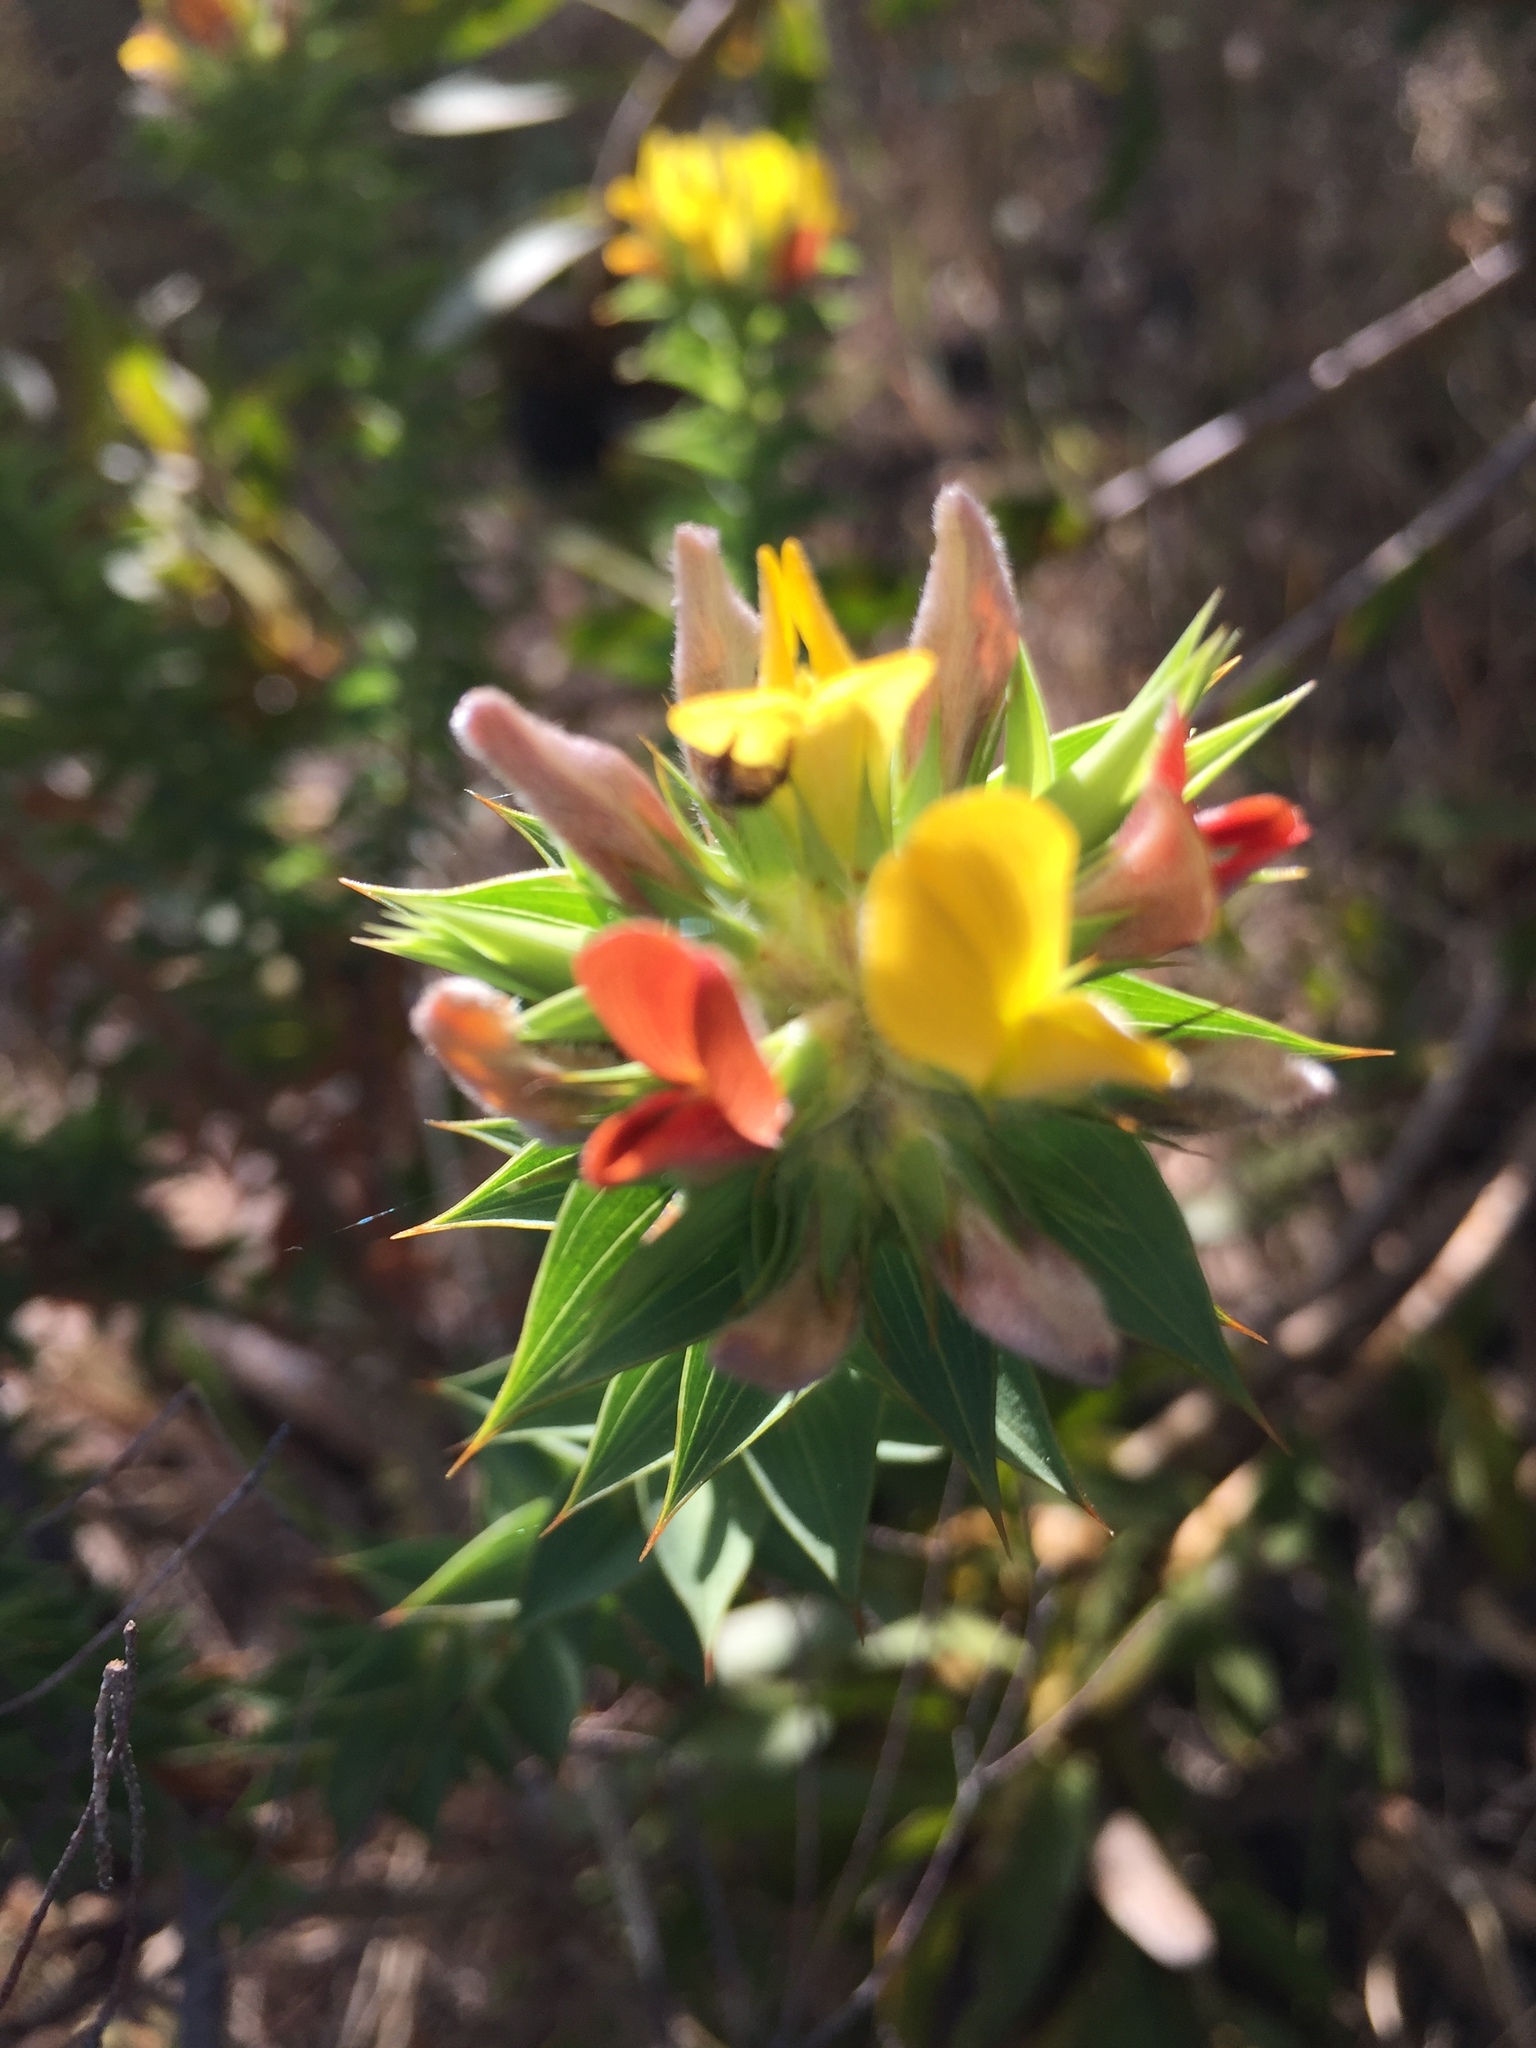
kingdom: Plantae
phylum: Tracheophyta
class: Magnoliopsida
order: Fabales
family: Fabaceae
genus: Aspalathus
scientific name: Aspalathus cordata
